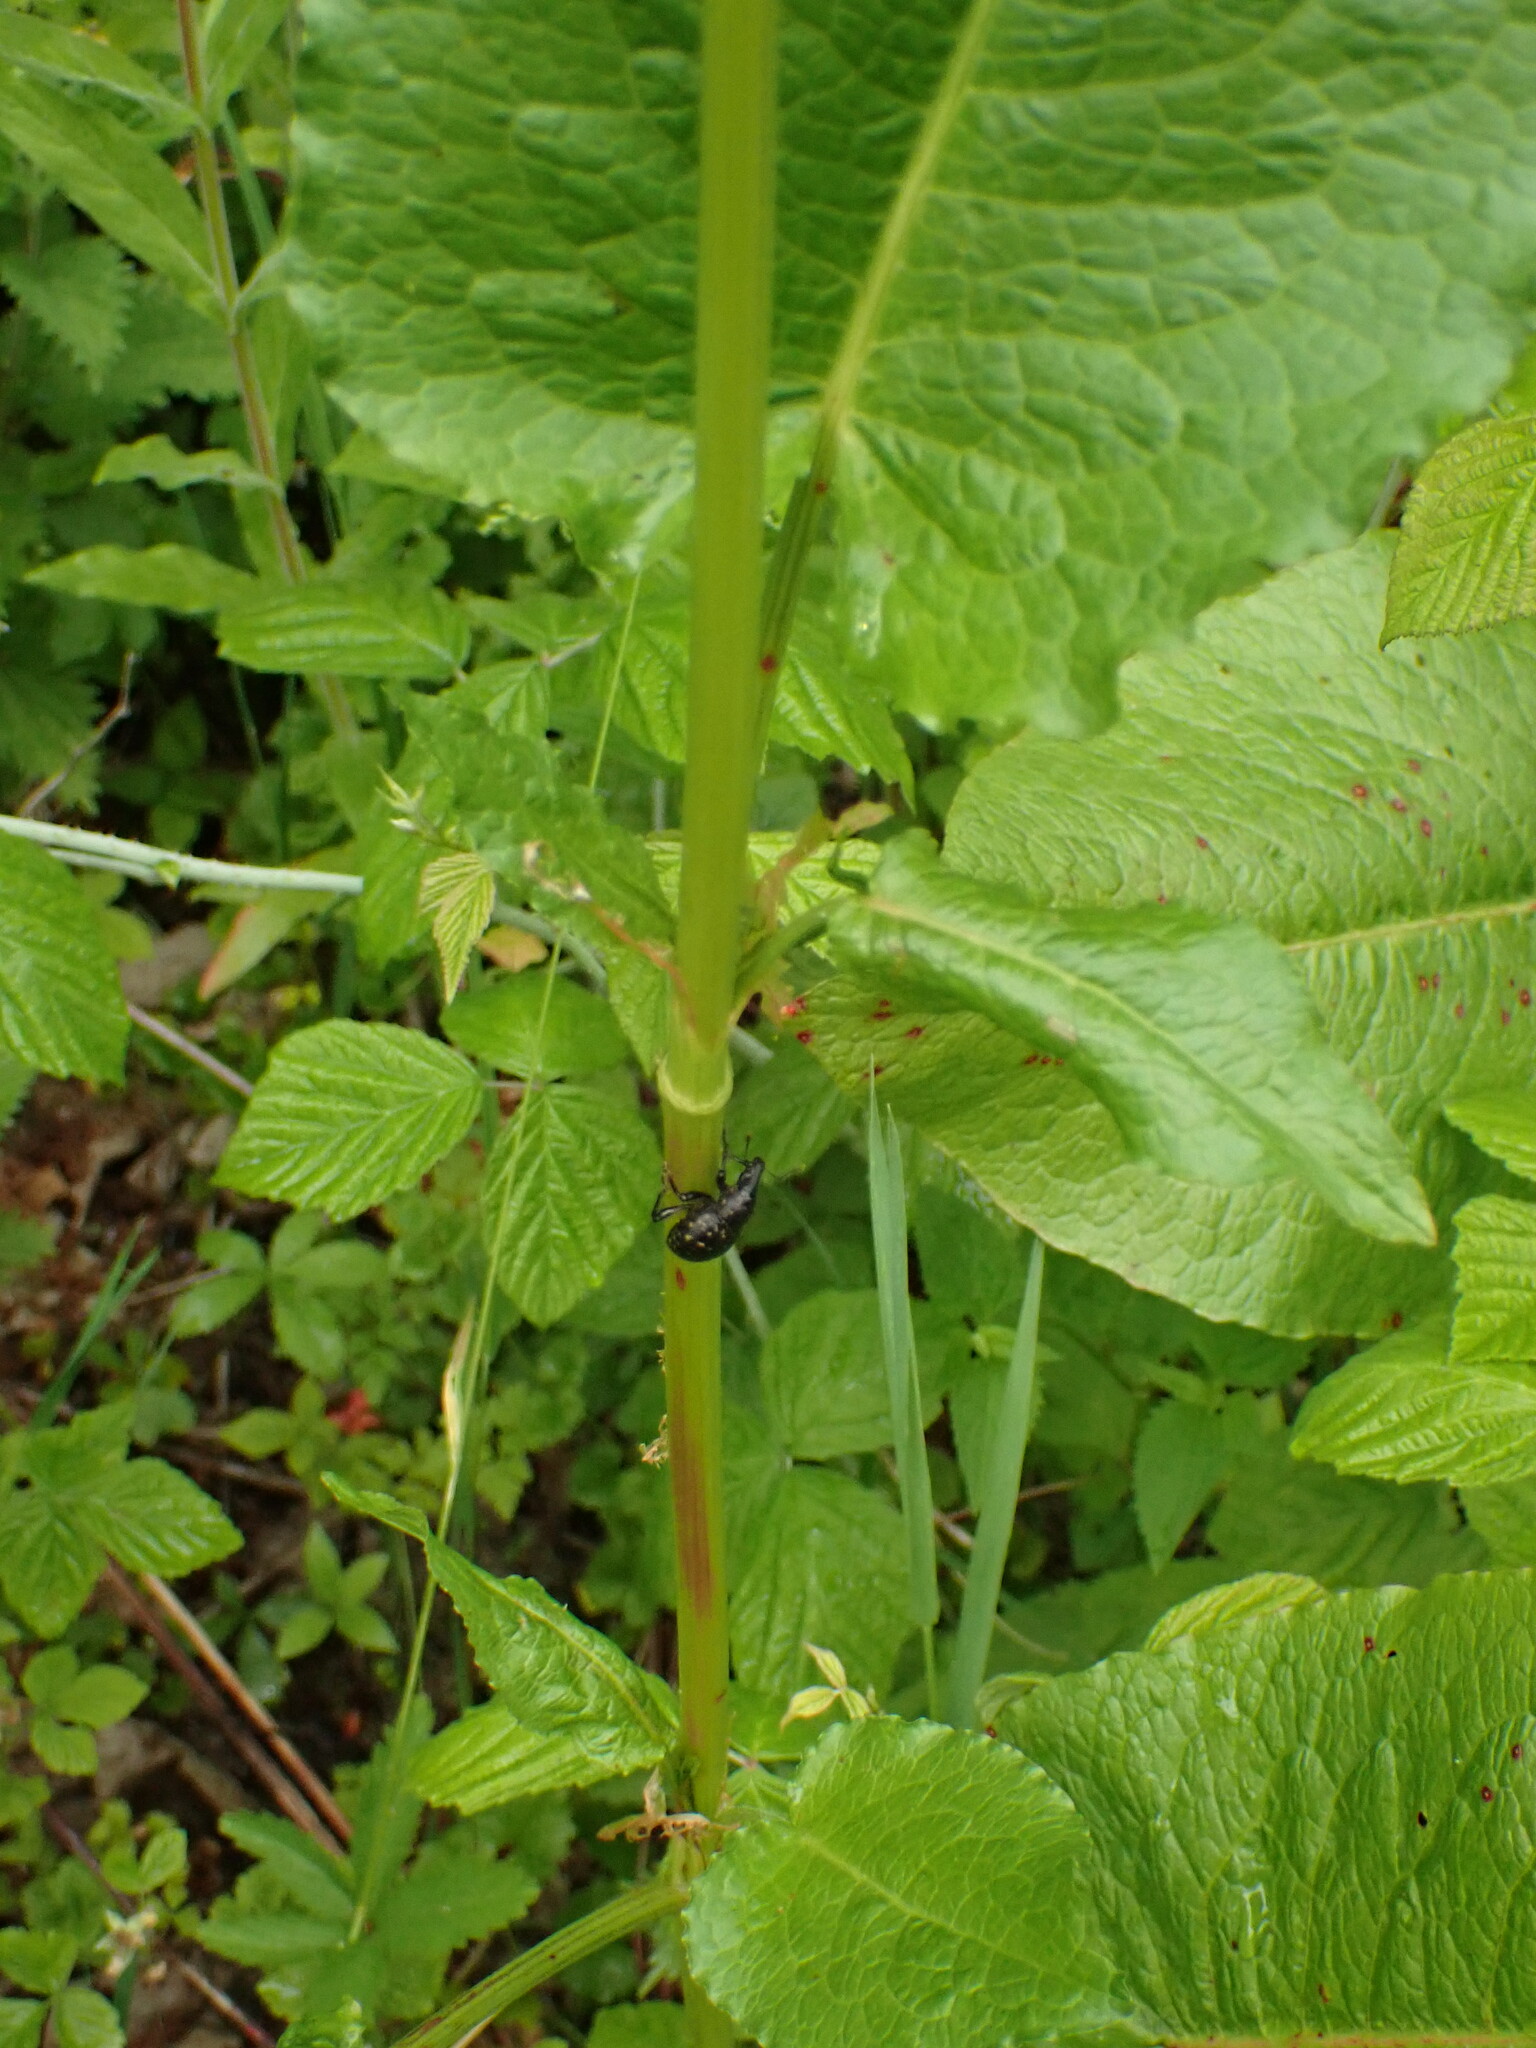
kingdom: Animalia
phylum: Arthropoda
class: Insecta
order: Coleoptera
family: Curculionidae
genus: Liparus
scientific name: Liparus germanus
